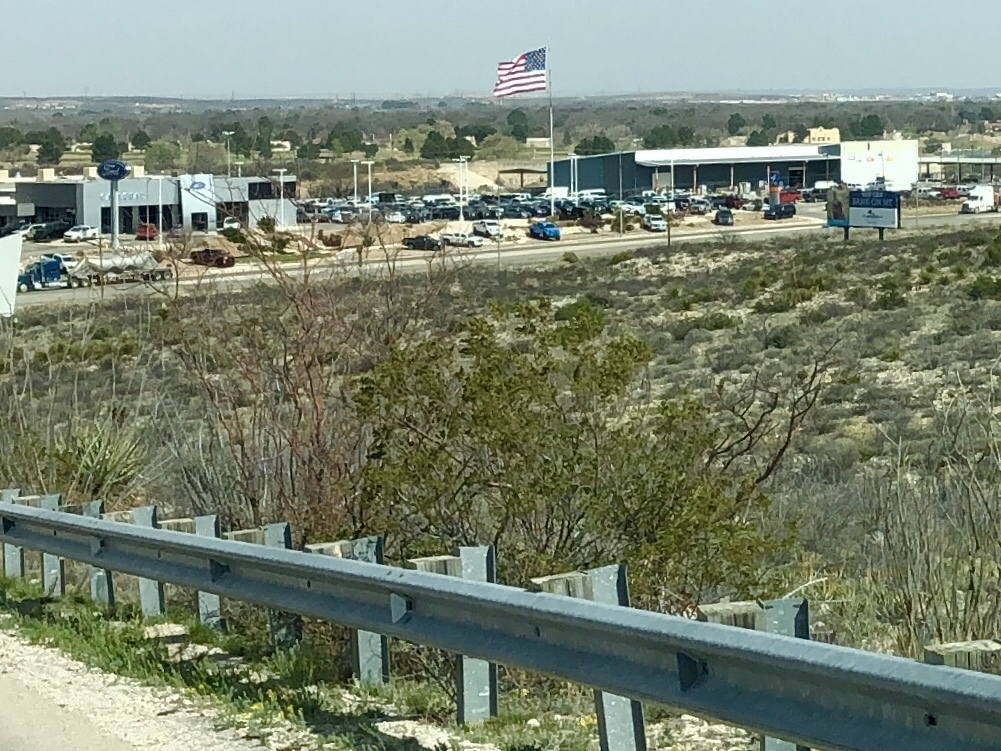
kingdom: Plantae
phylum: Tracheophyta
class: Magnoliopsida
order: Zygophyllales
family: Zygophyllaceae
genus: Larrea
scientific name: Larrea tridentata
